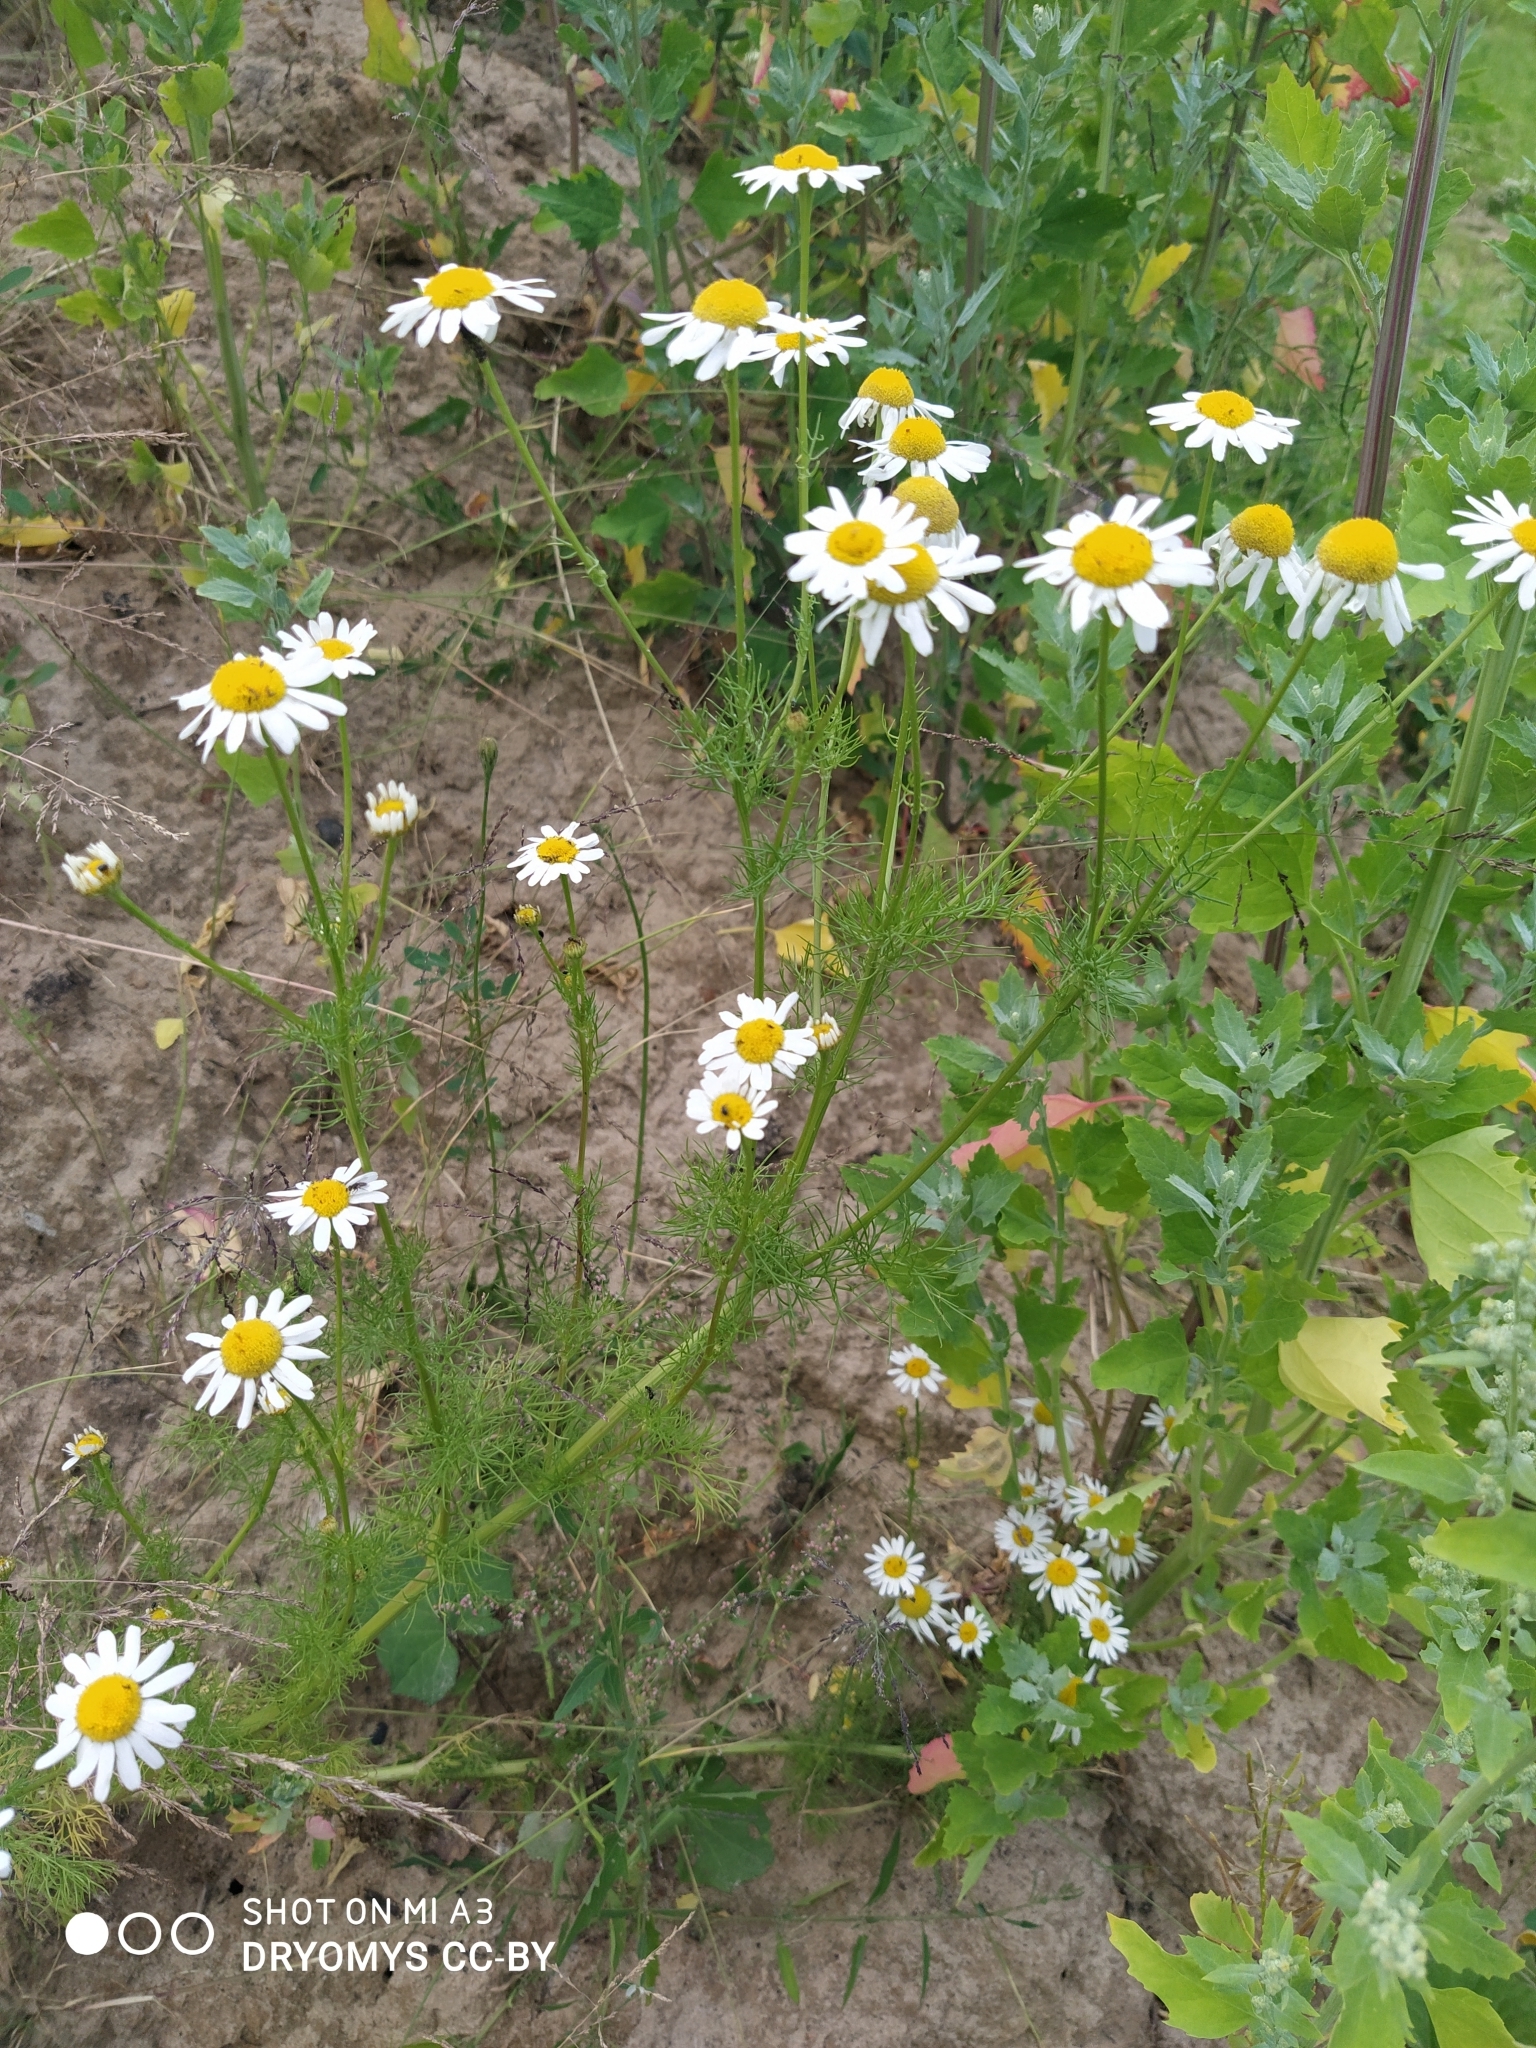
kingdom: Plantae
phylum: Tracheophyta
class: Magnoliopsida
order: Asterales
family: Asteraceae
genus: Tripleurospermum
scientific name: Tripleurospermum inodorum
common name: Scentless mayweed
